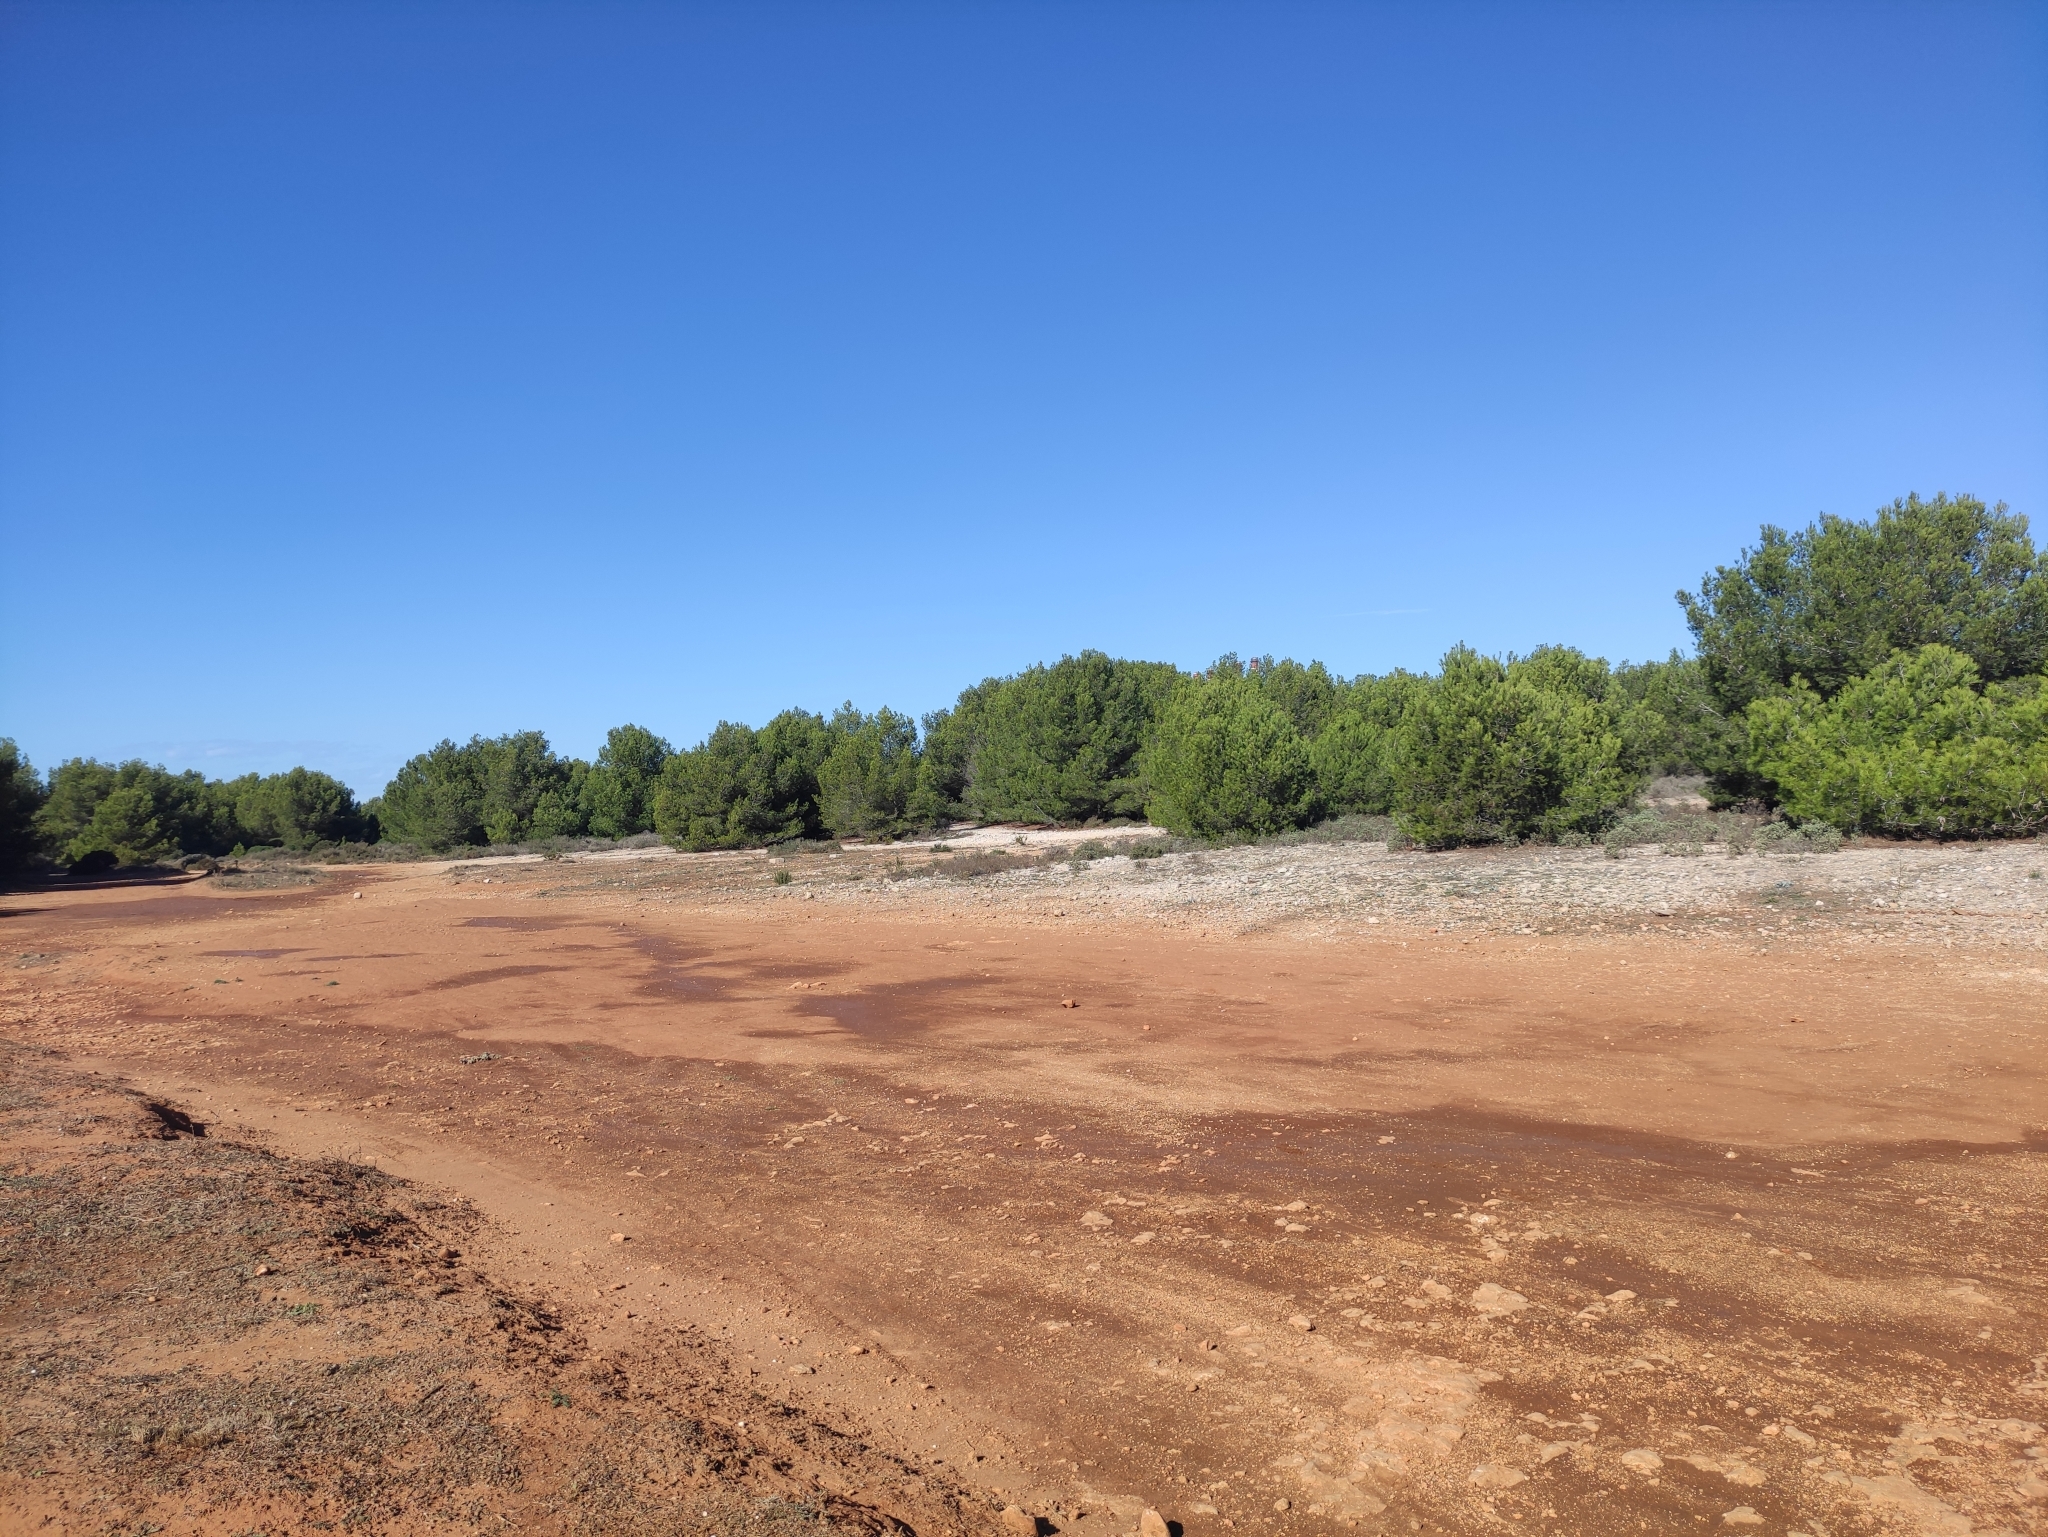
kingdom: Plantae
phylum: Tracheophyta
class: Liliopsida
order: Liliales
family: Colchicaceae
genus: Colchicum
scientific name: Colchicum filifolium
